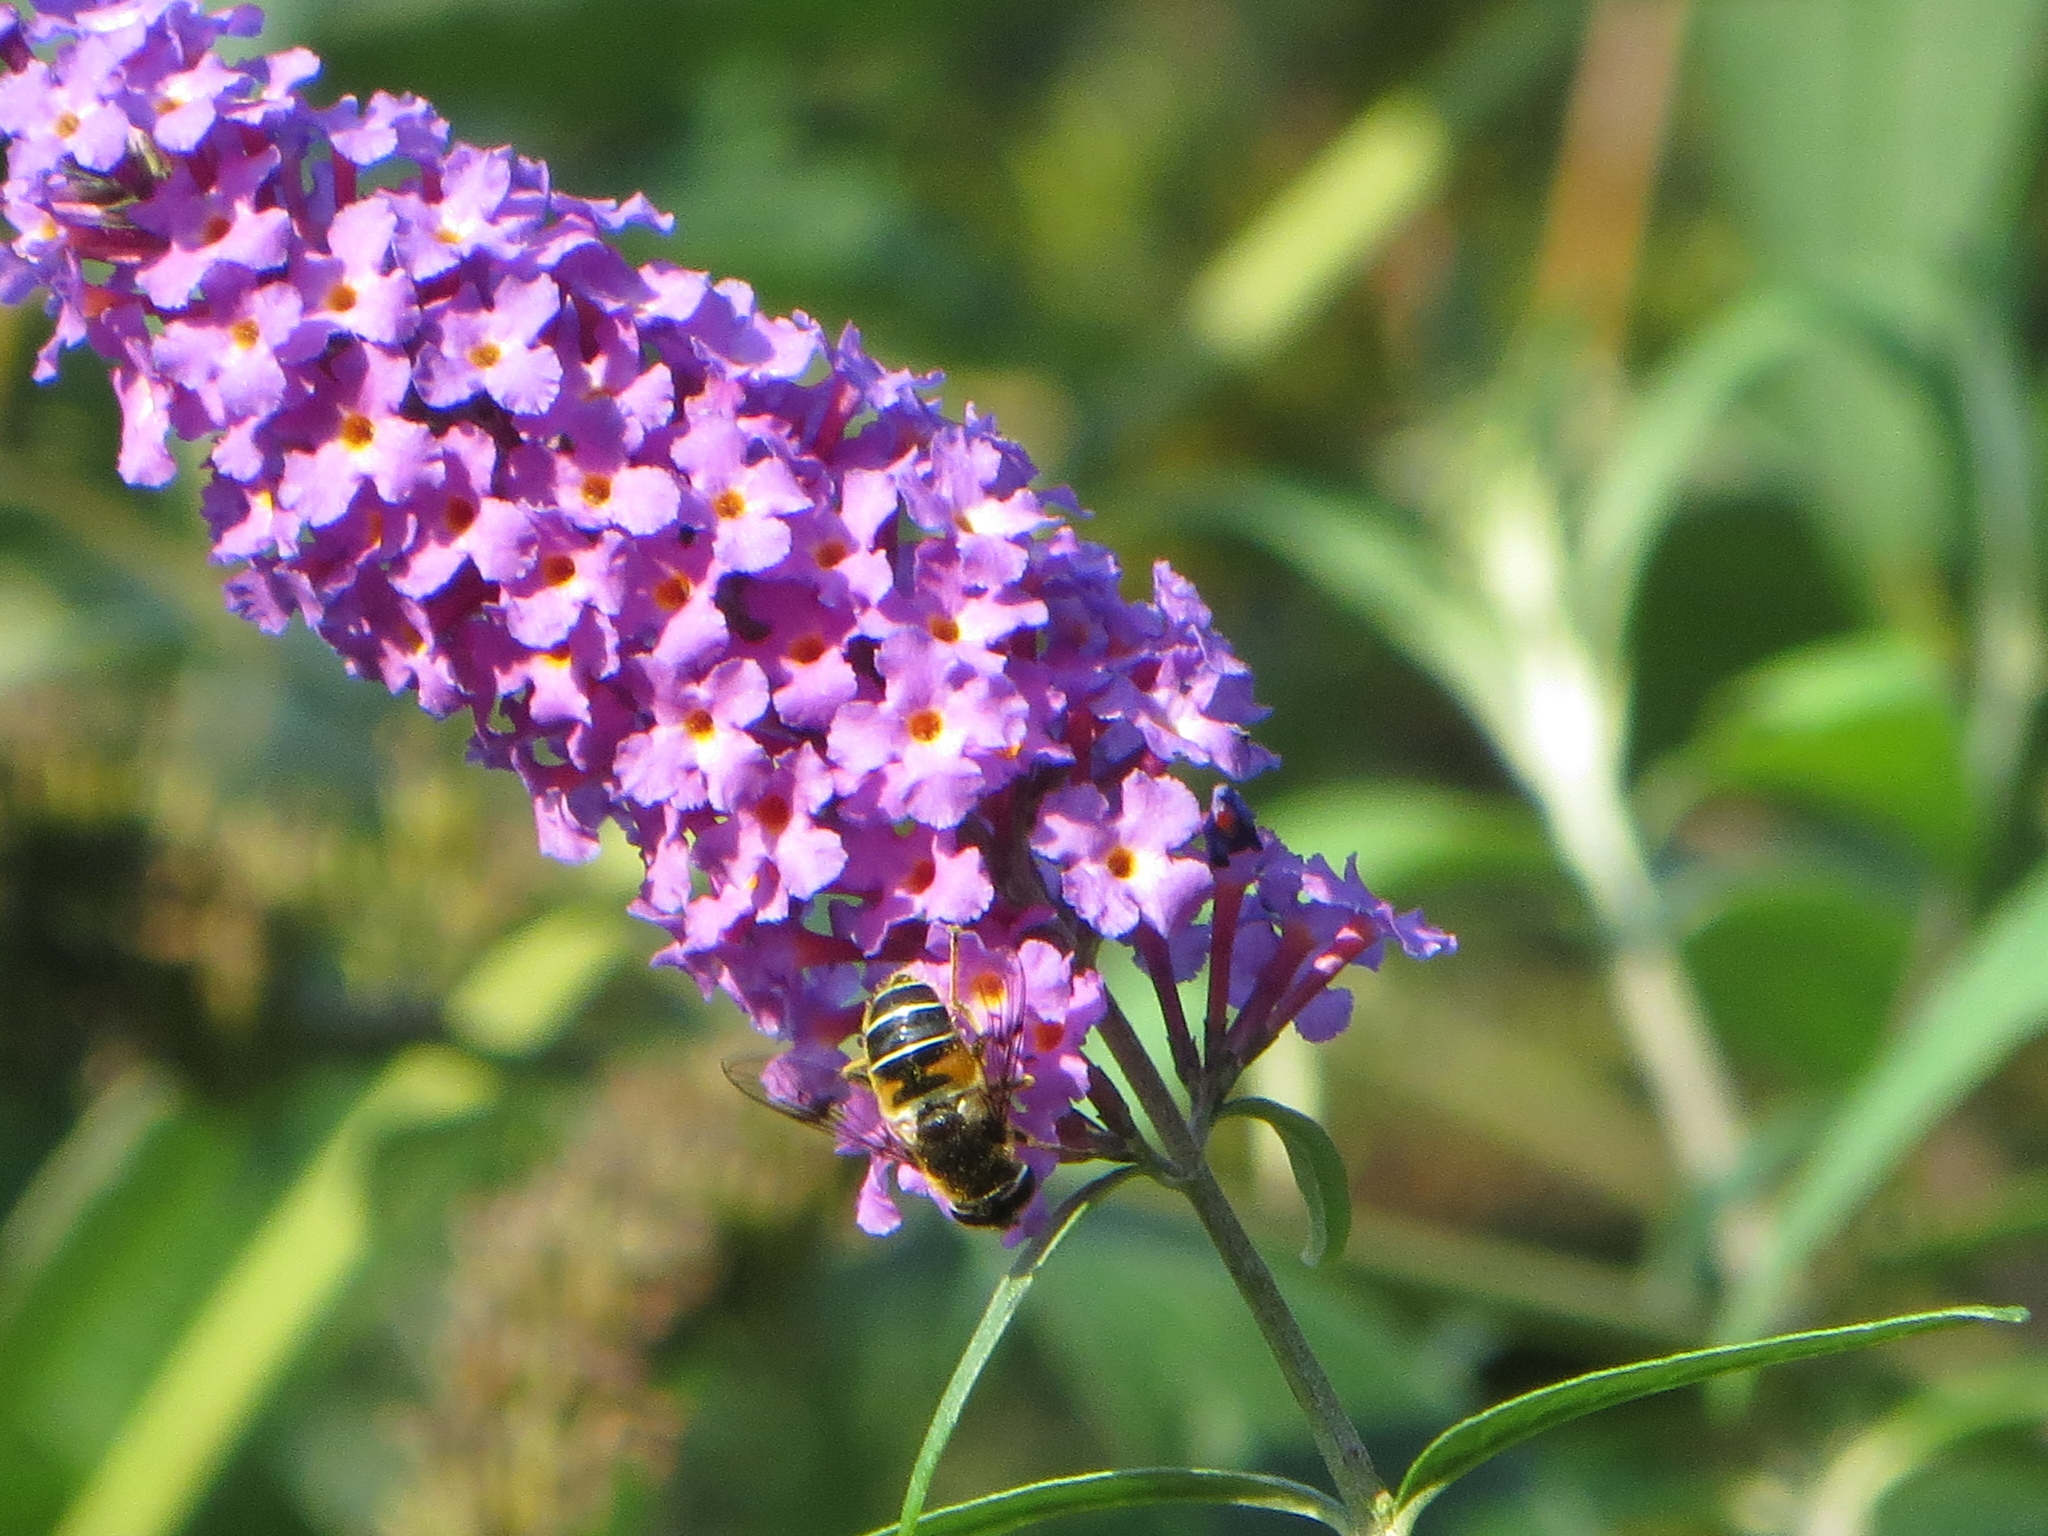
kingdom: Animalia
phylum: Arthropoda
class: Insecta
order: Diptera
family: Syrphidae
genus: Eristalis
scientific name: Eristalis
